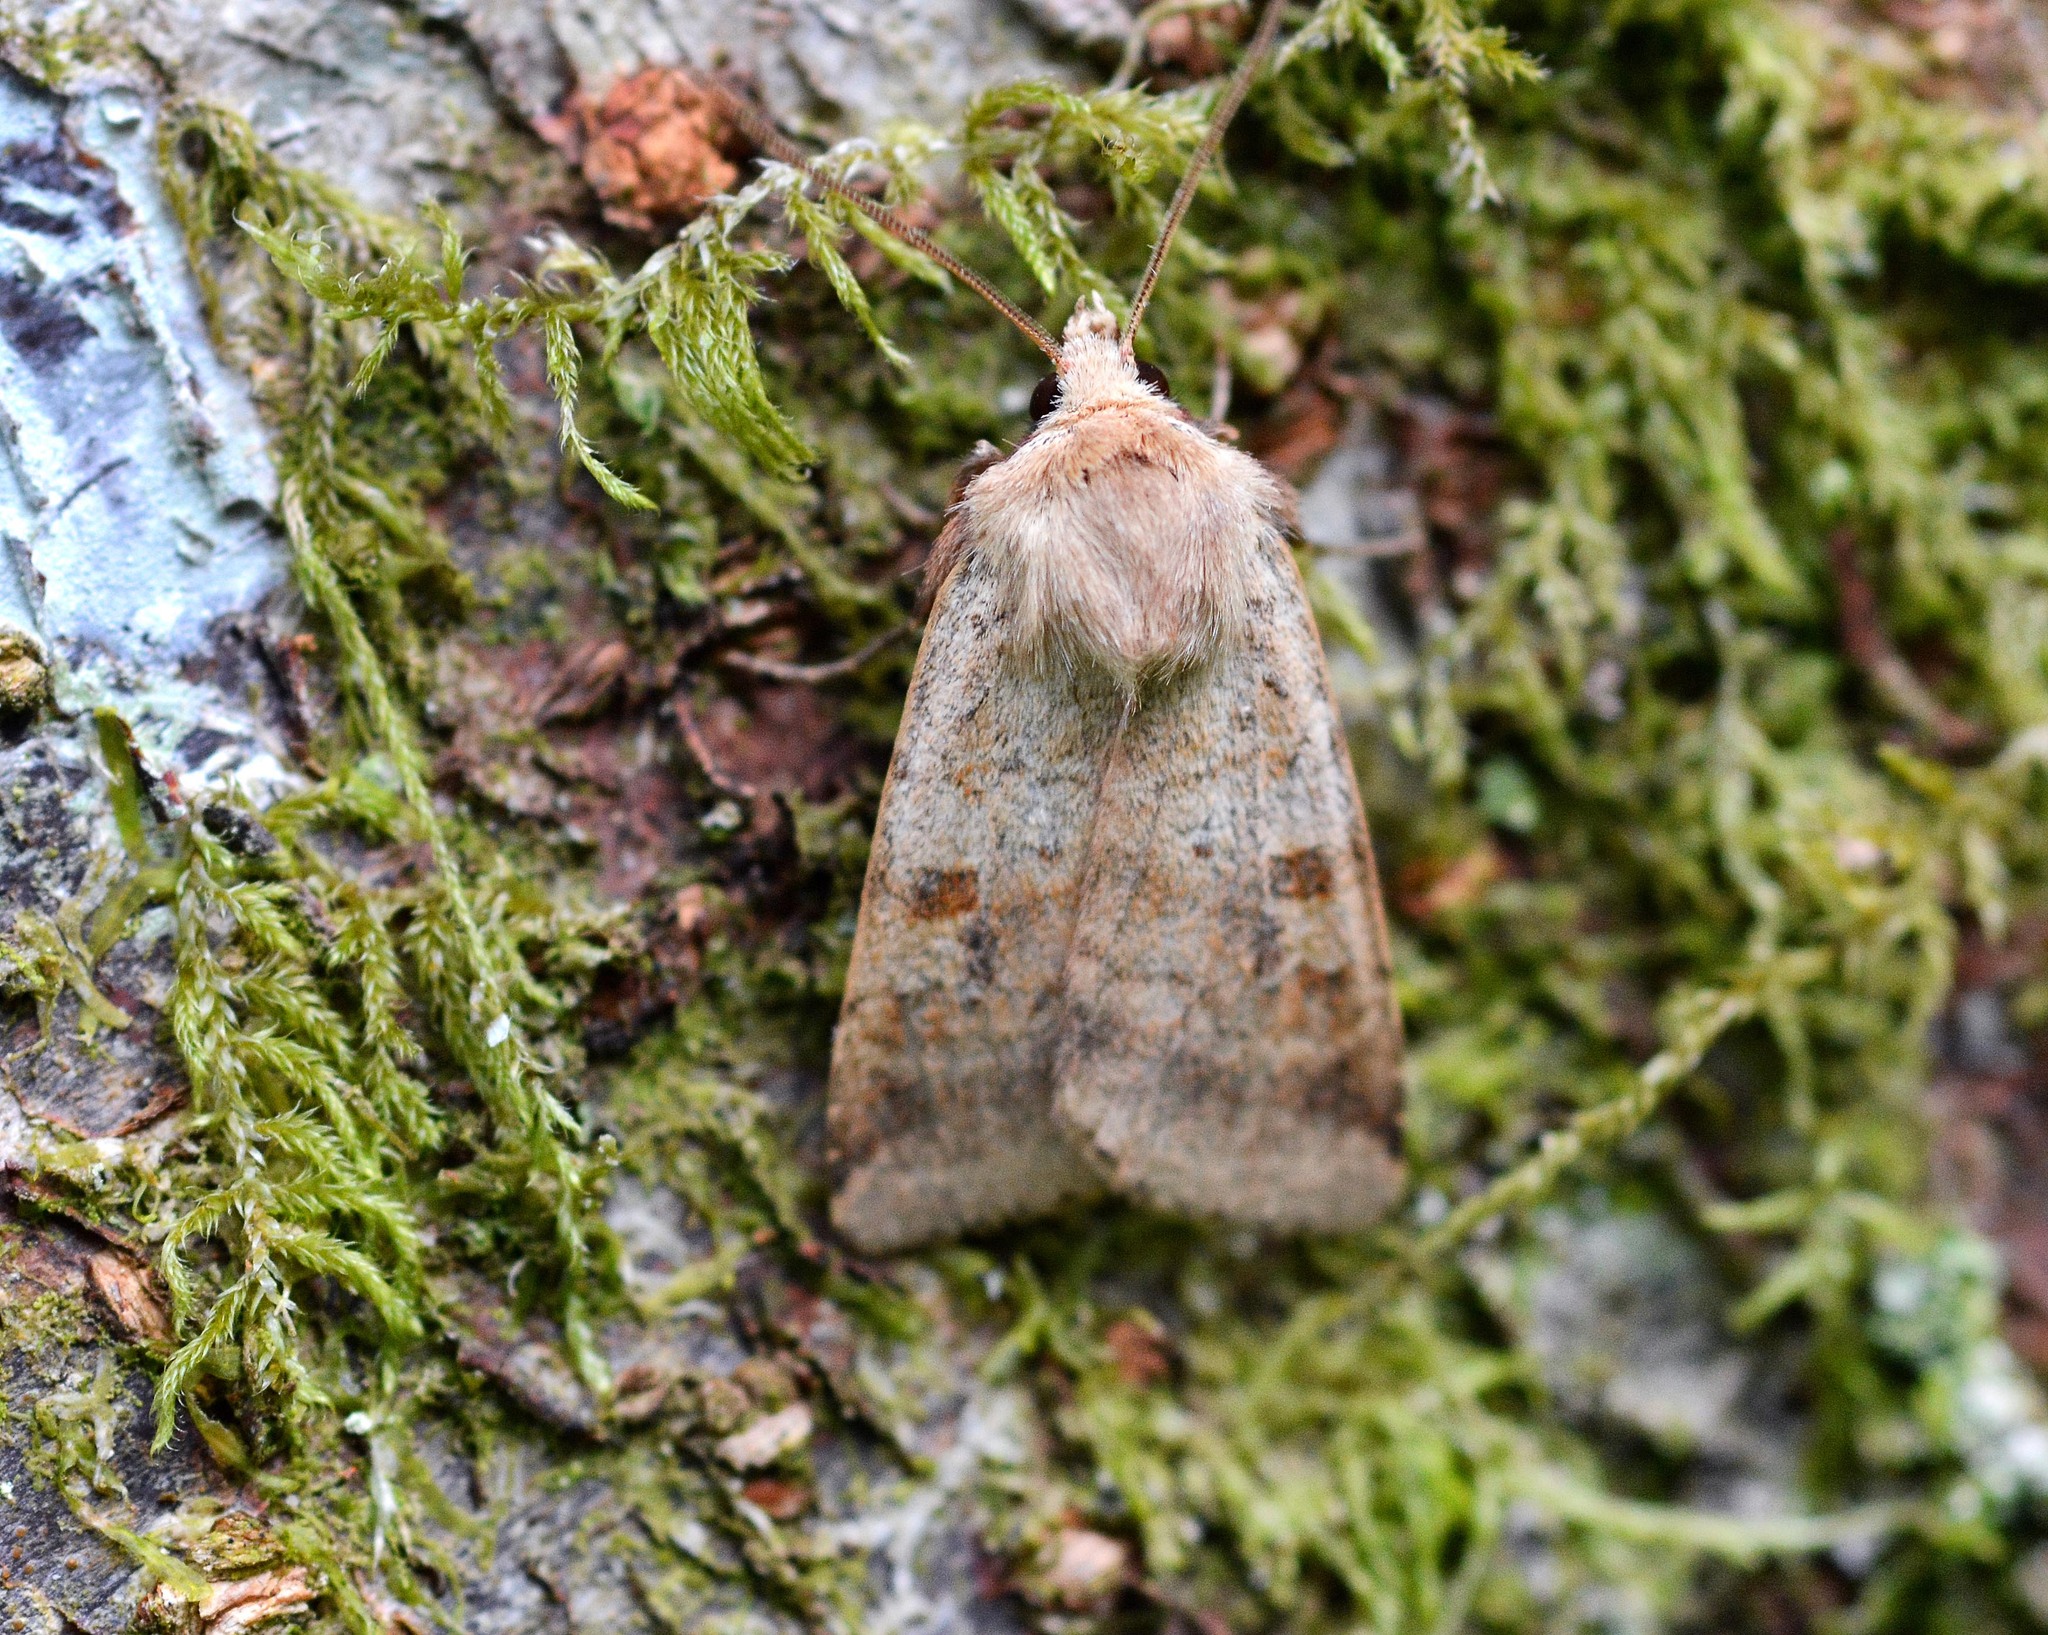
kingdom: Animalia
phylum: Arthropoda
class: Insecta
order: Lepidoptera
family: Noctuidae
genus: Diarsia
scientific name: Diarsia mendica
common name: Ingrailed clay
